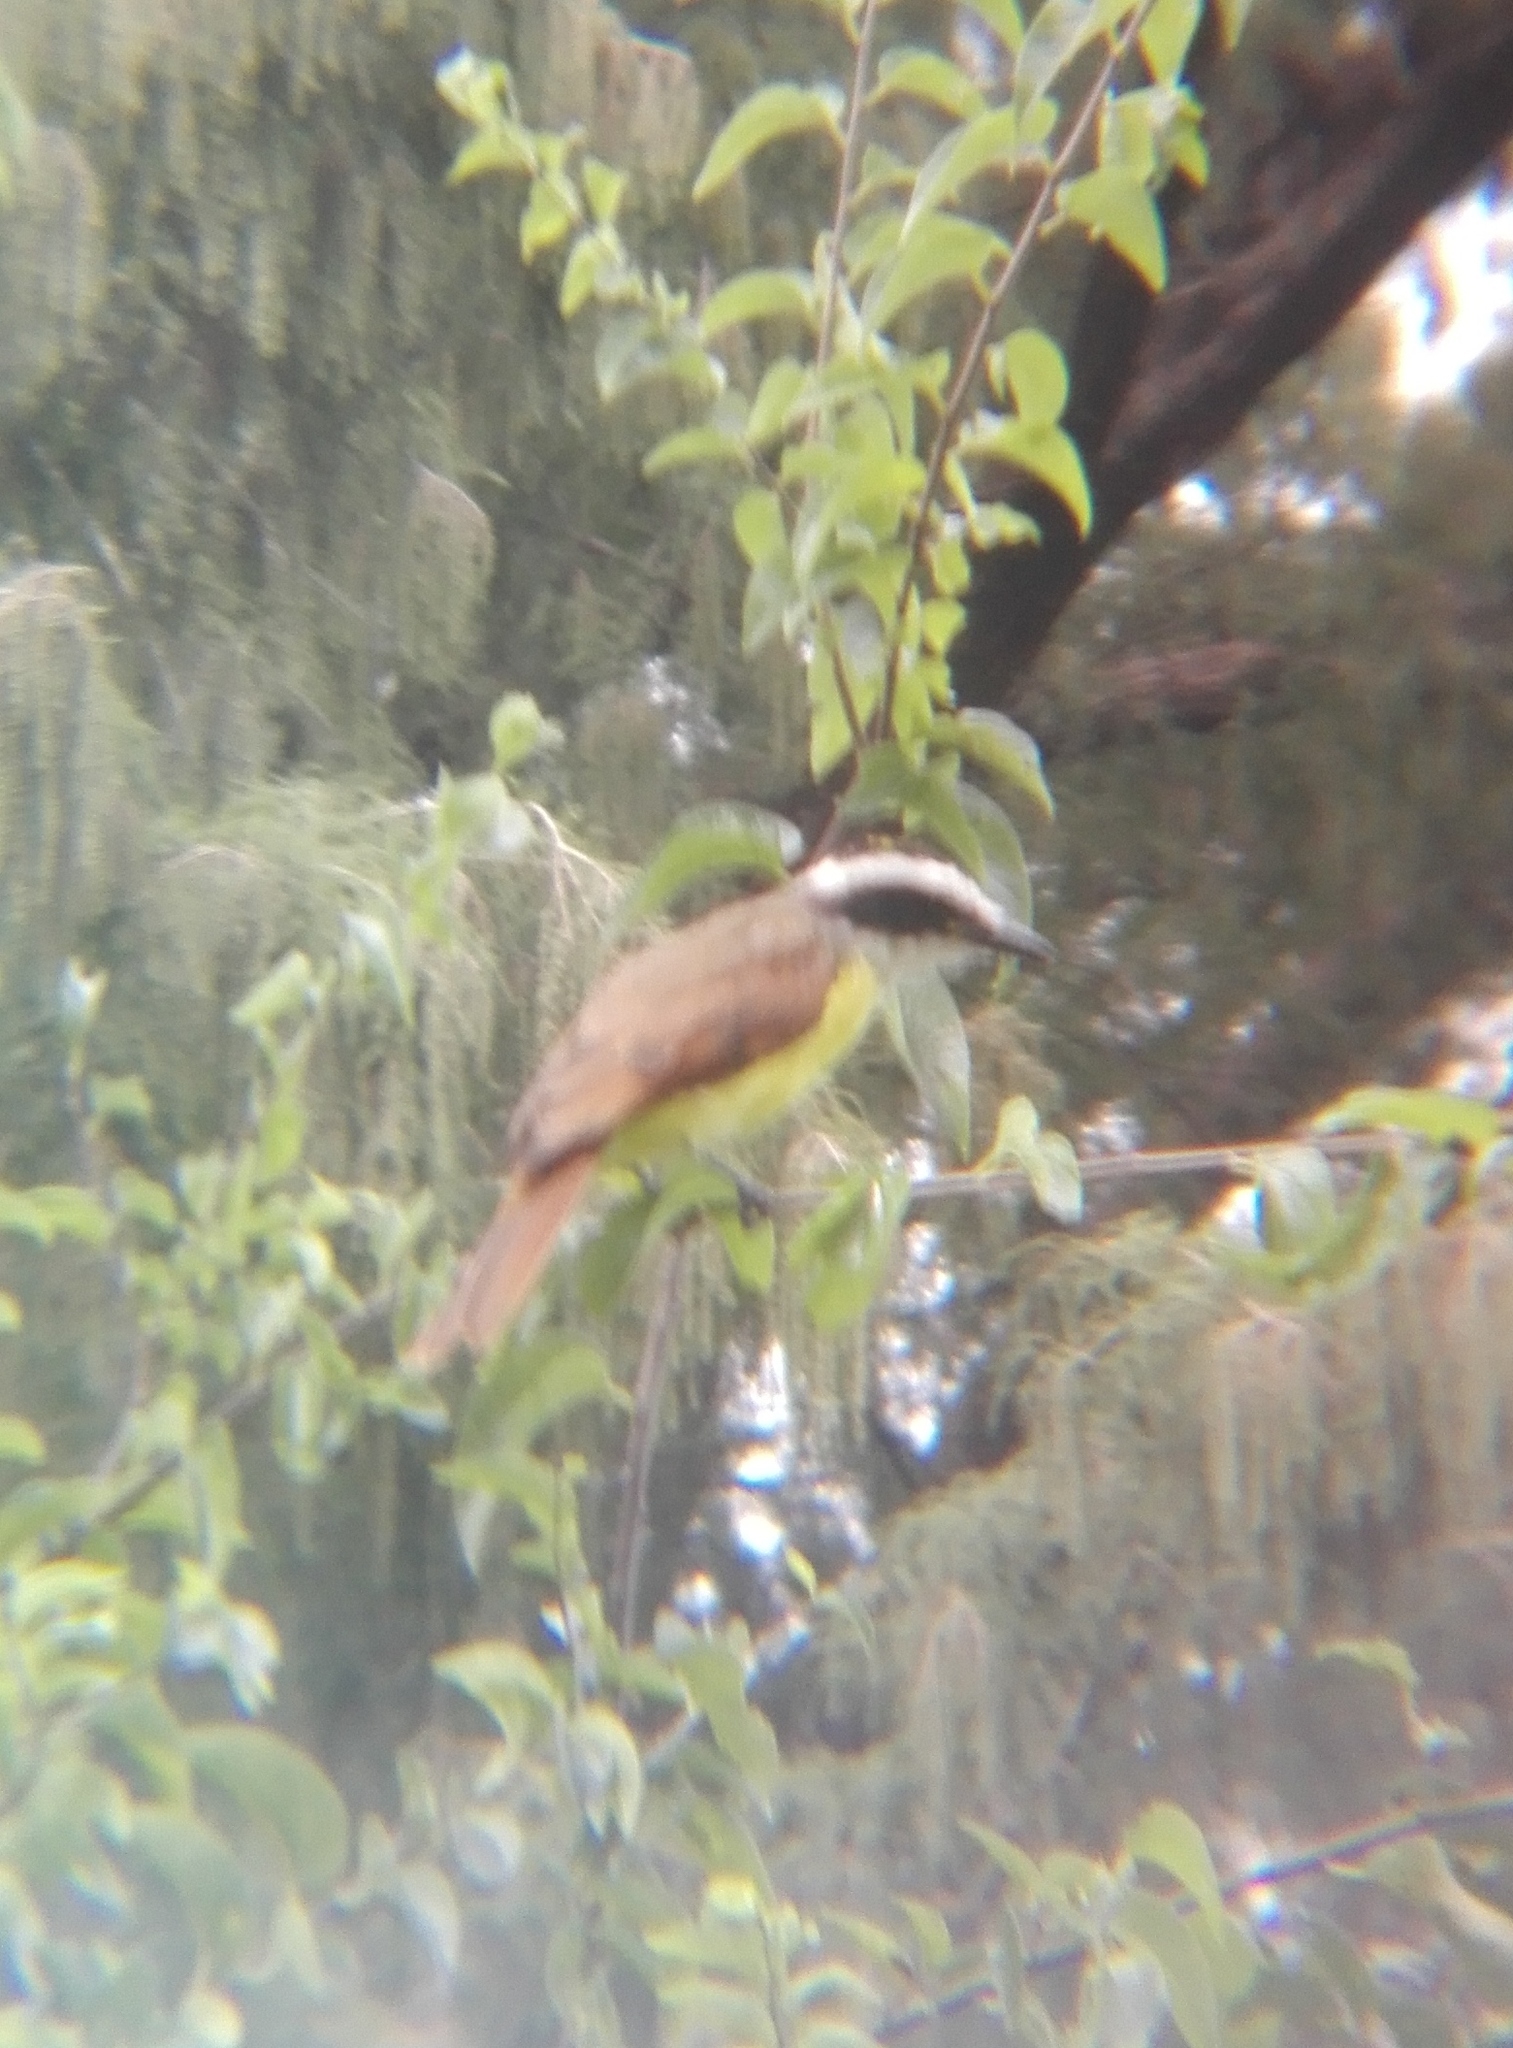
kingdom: Animalia
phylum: Chordata
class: Aves
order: Passeriformes
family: Tyrannidae
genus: Pitangus
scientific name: Pitangus sulphuratus
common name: Great kiskadee
